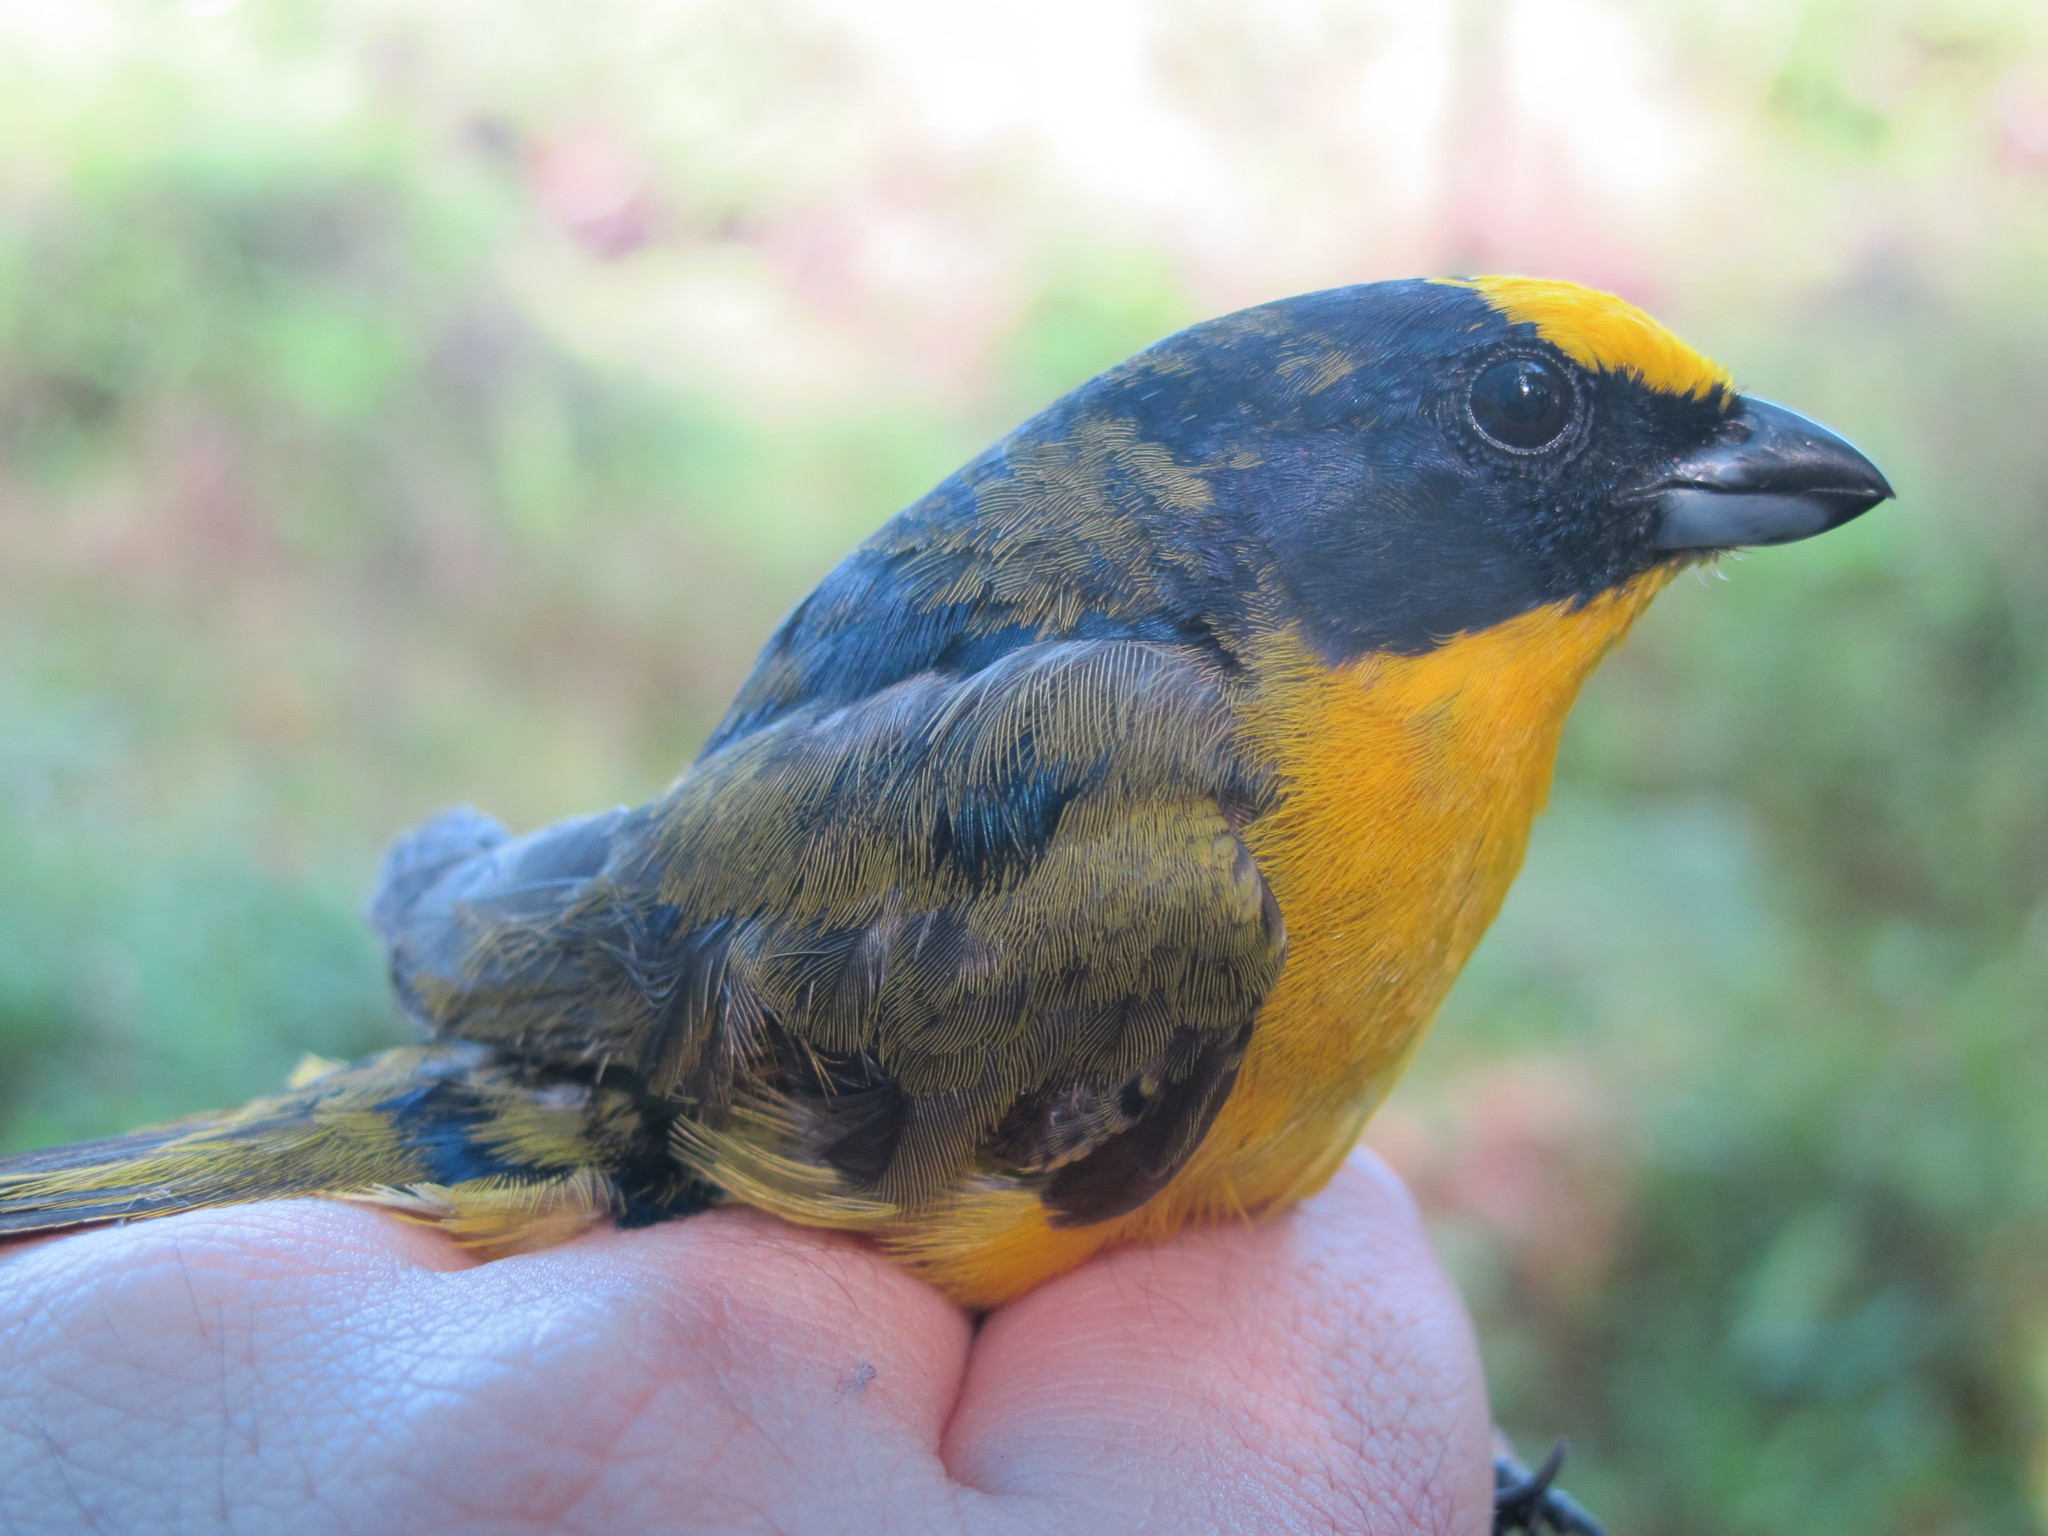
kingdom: Animalia
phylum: Chordata
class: Aves
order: Passeriformes
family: Fringillidae
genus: Euphonia
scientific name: Euphonia laniirostris
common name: Thick-billed euphonia
